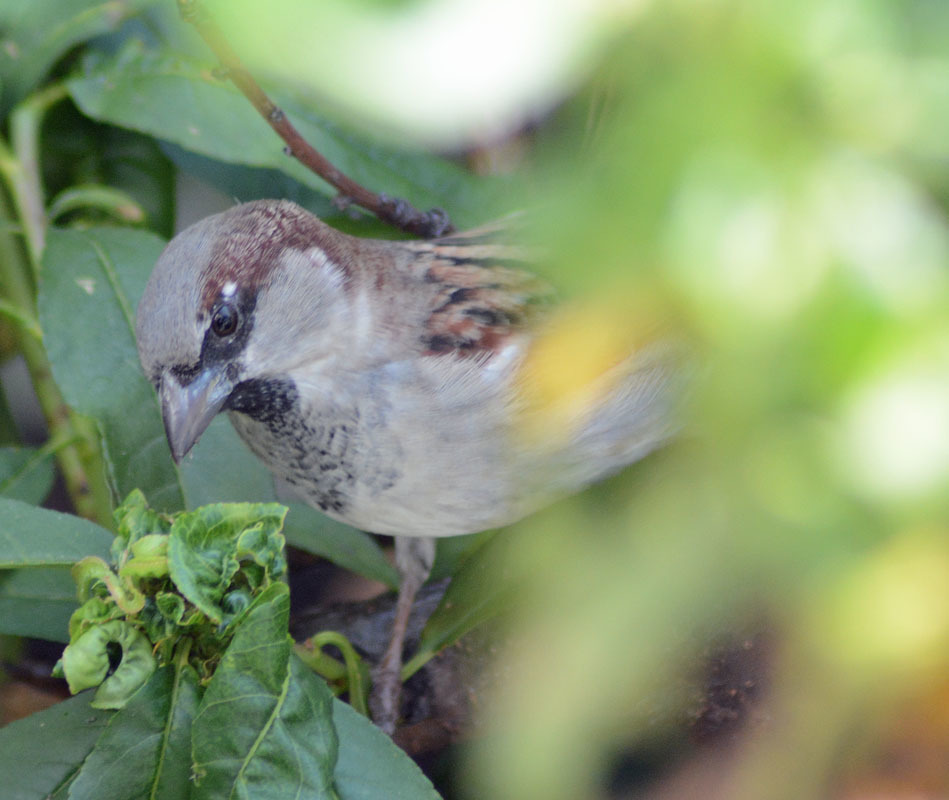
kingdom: Animalia
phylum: Chordata
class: Aves
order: Passeriformes
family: Passeridae
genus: Passer
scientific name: Passer domesticus
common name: House sparrow
